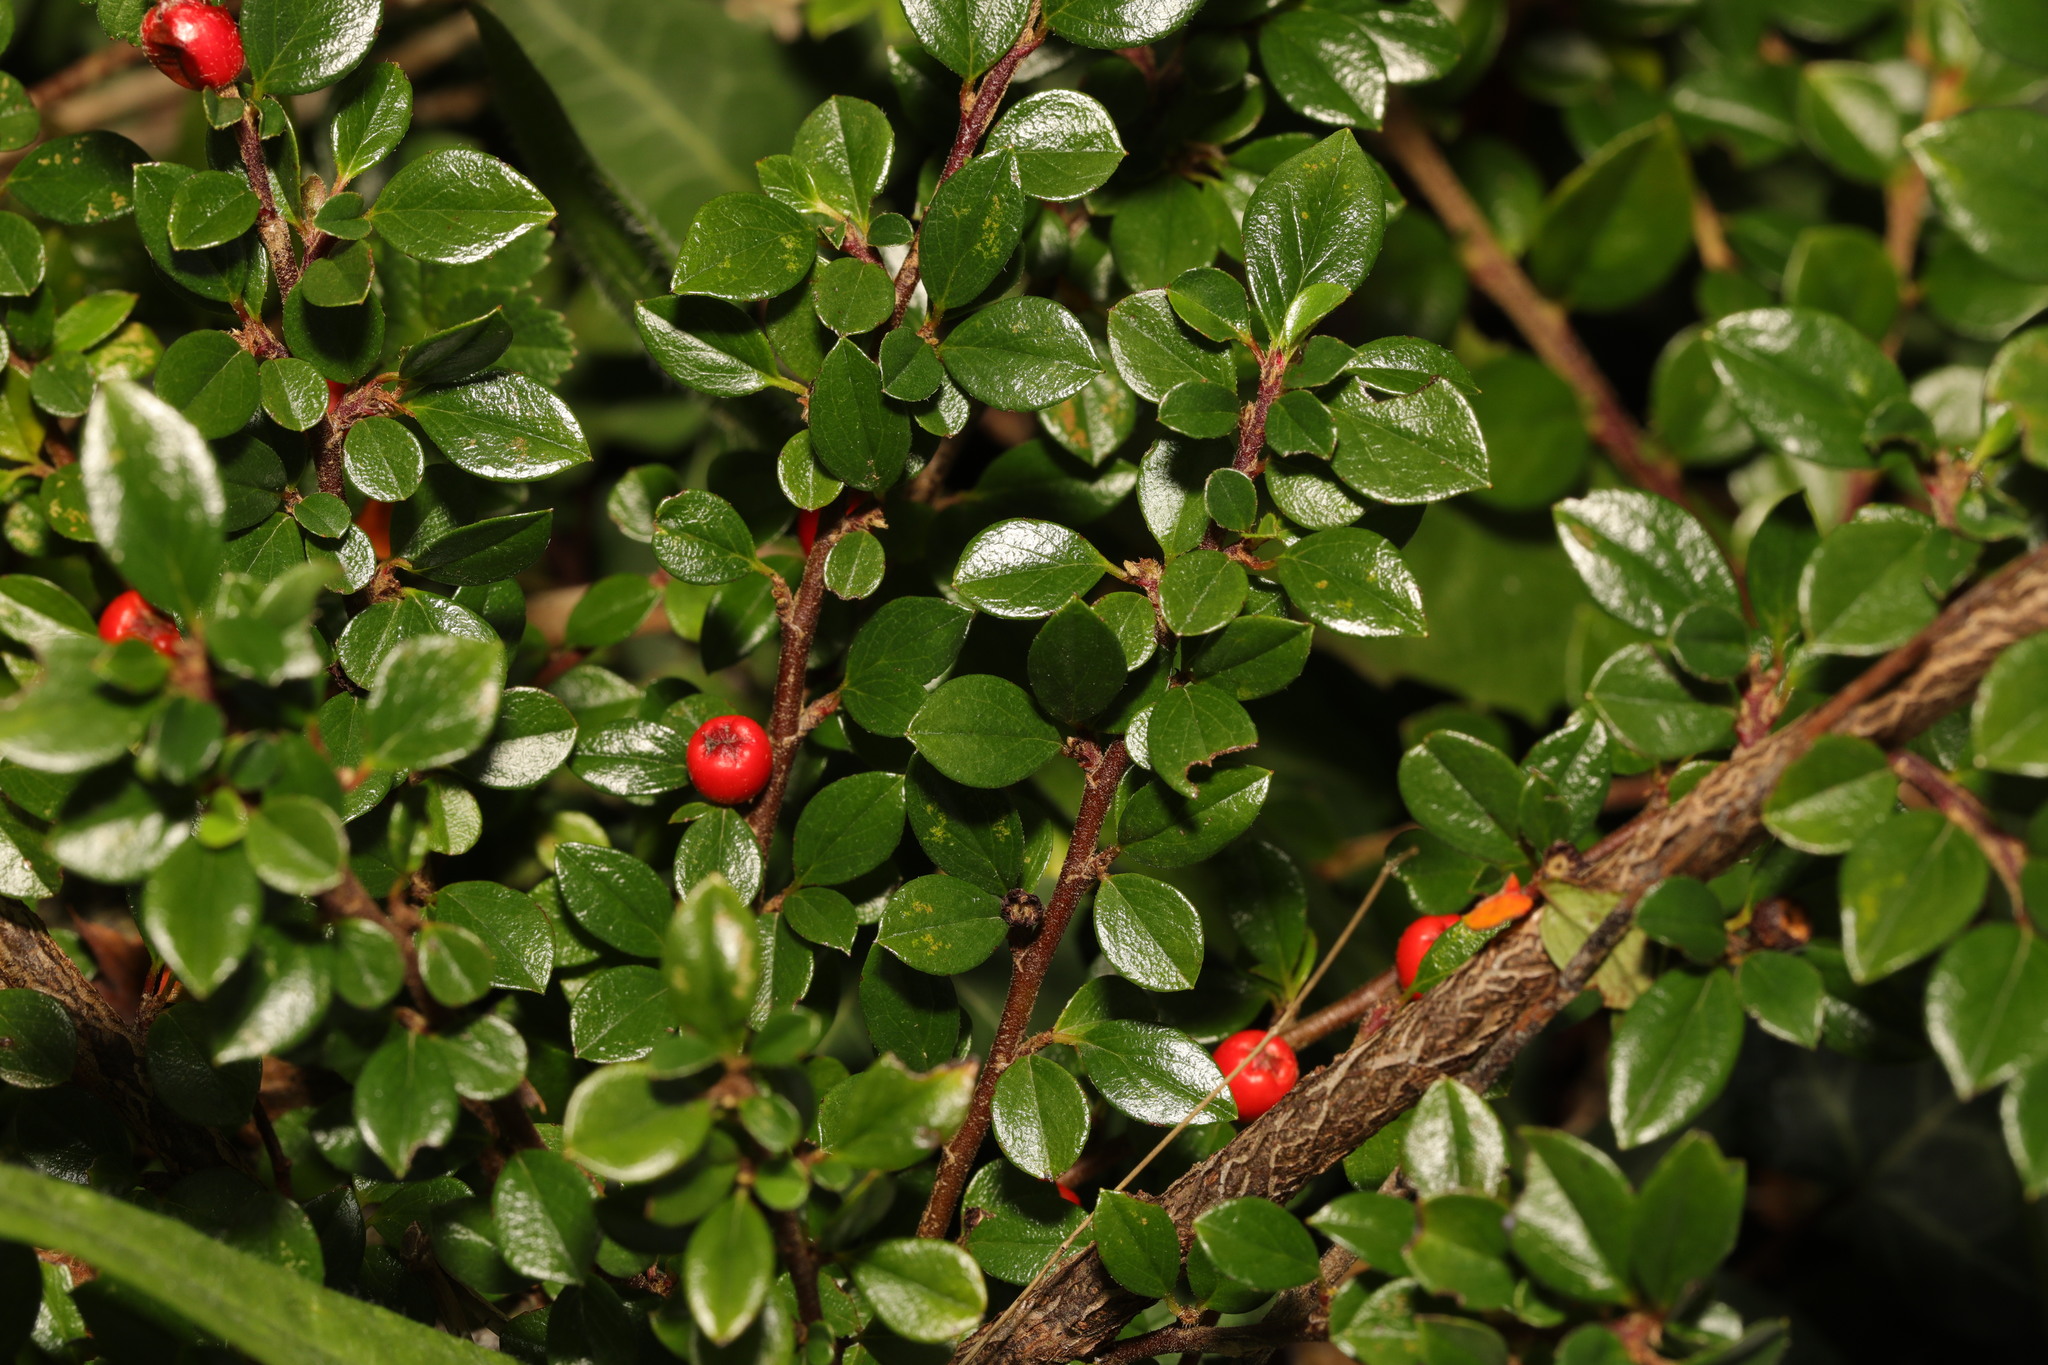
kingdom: Plantae
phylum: Tracheophyta
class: Magnoliopsida
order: Rosales
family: Rosaceae
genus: Cotoneaster
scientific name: Cotoneaster horizontalis
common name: Wall cotoneaster
